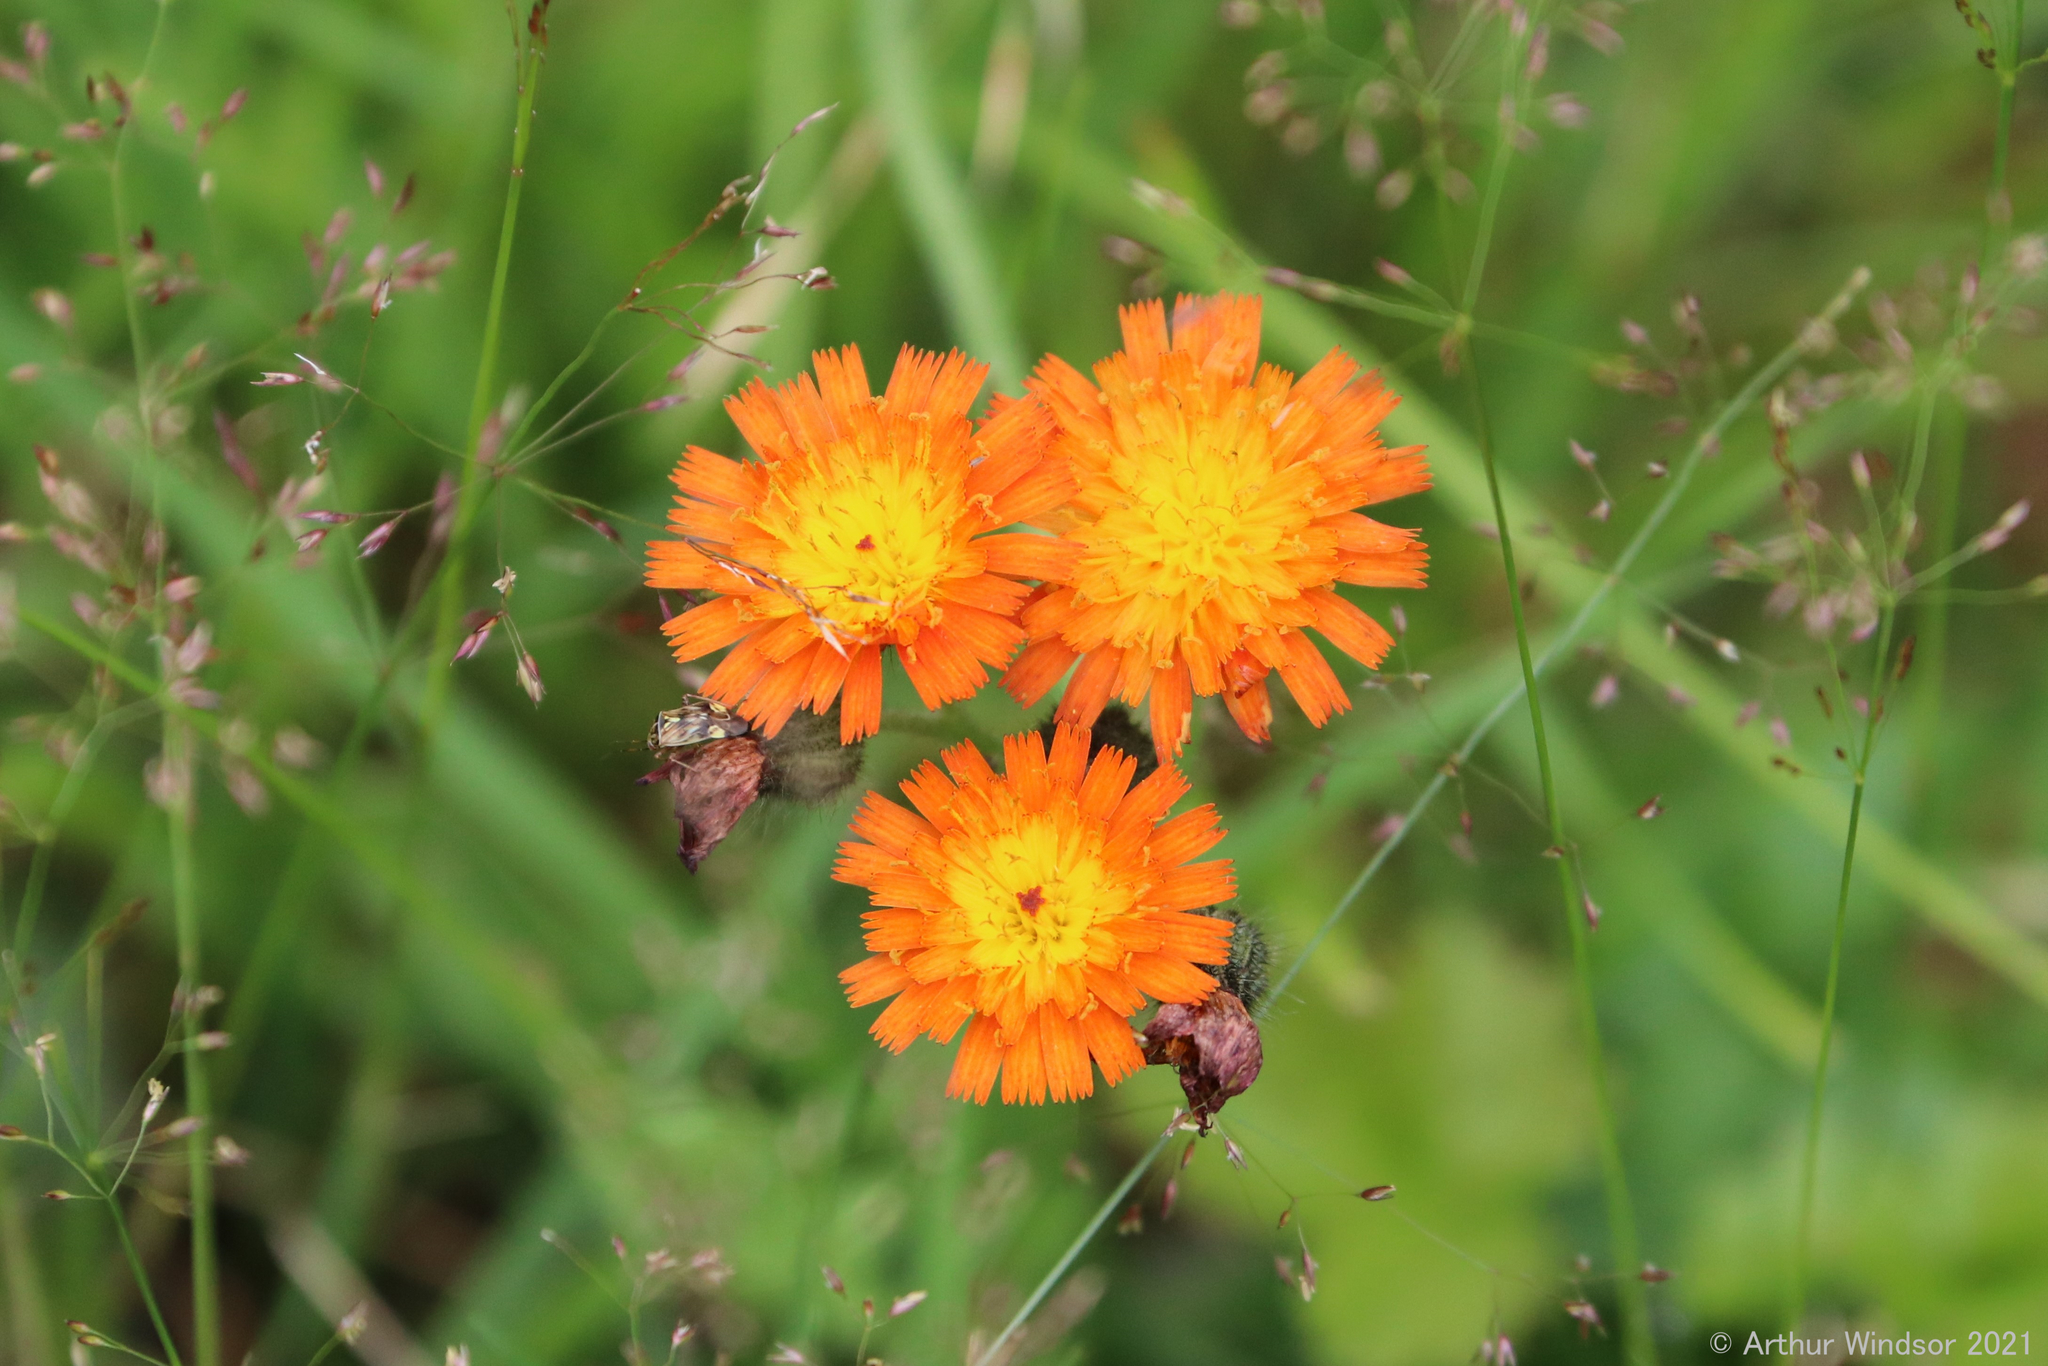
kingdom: Plantae
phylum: Tracheophyta
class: Magnoliopsida
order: Asterales
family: Asteraceae
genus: Pilosella
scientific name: Pilosella aurantiaca
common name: Fox-and-cubs
